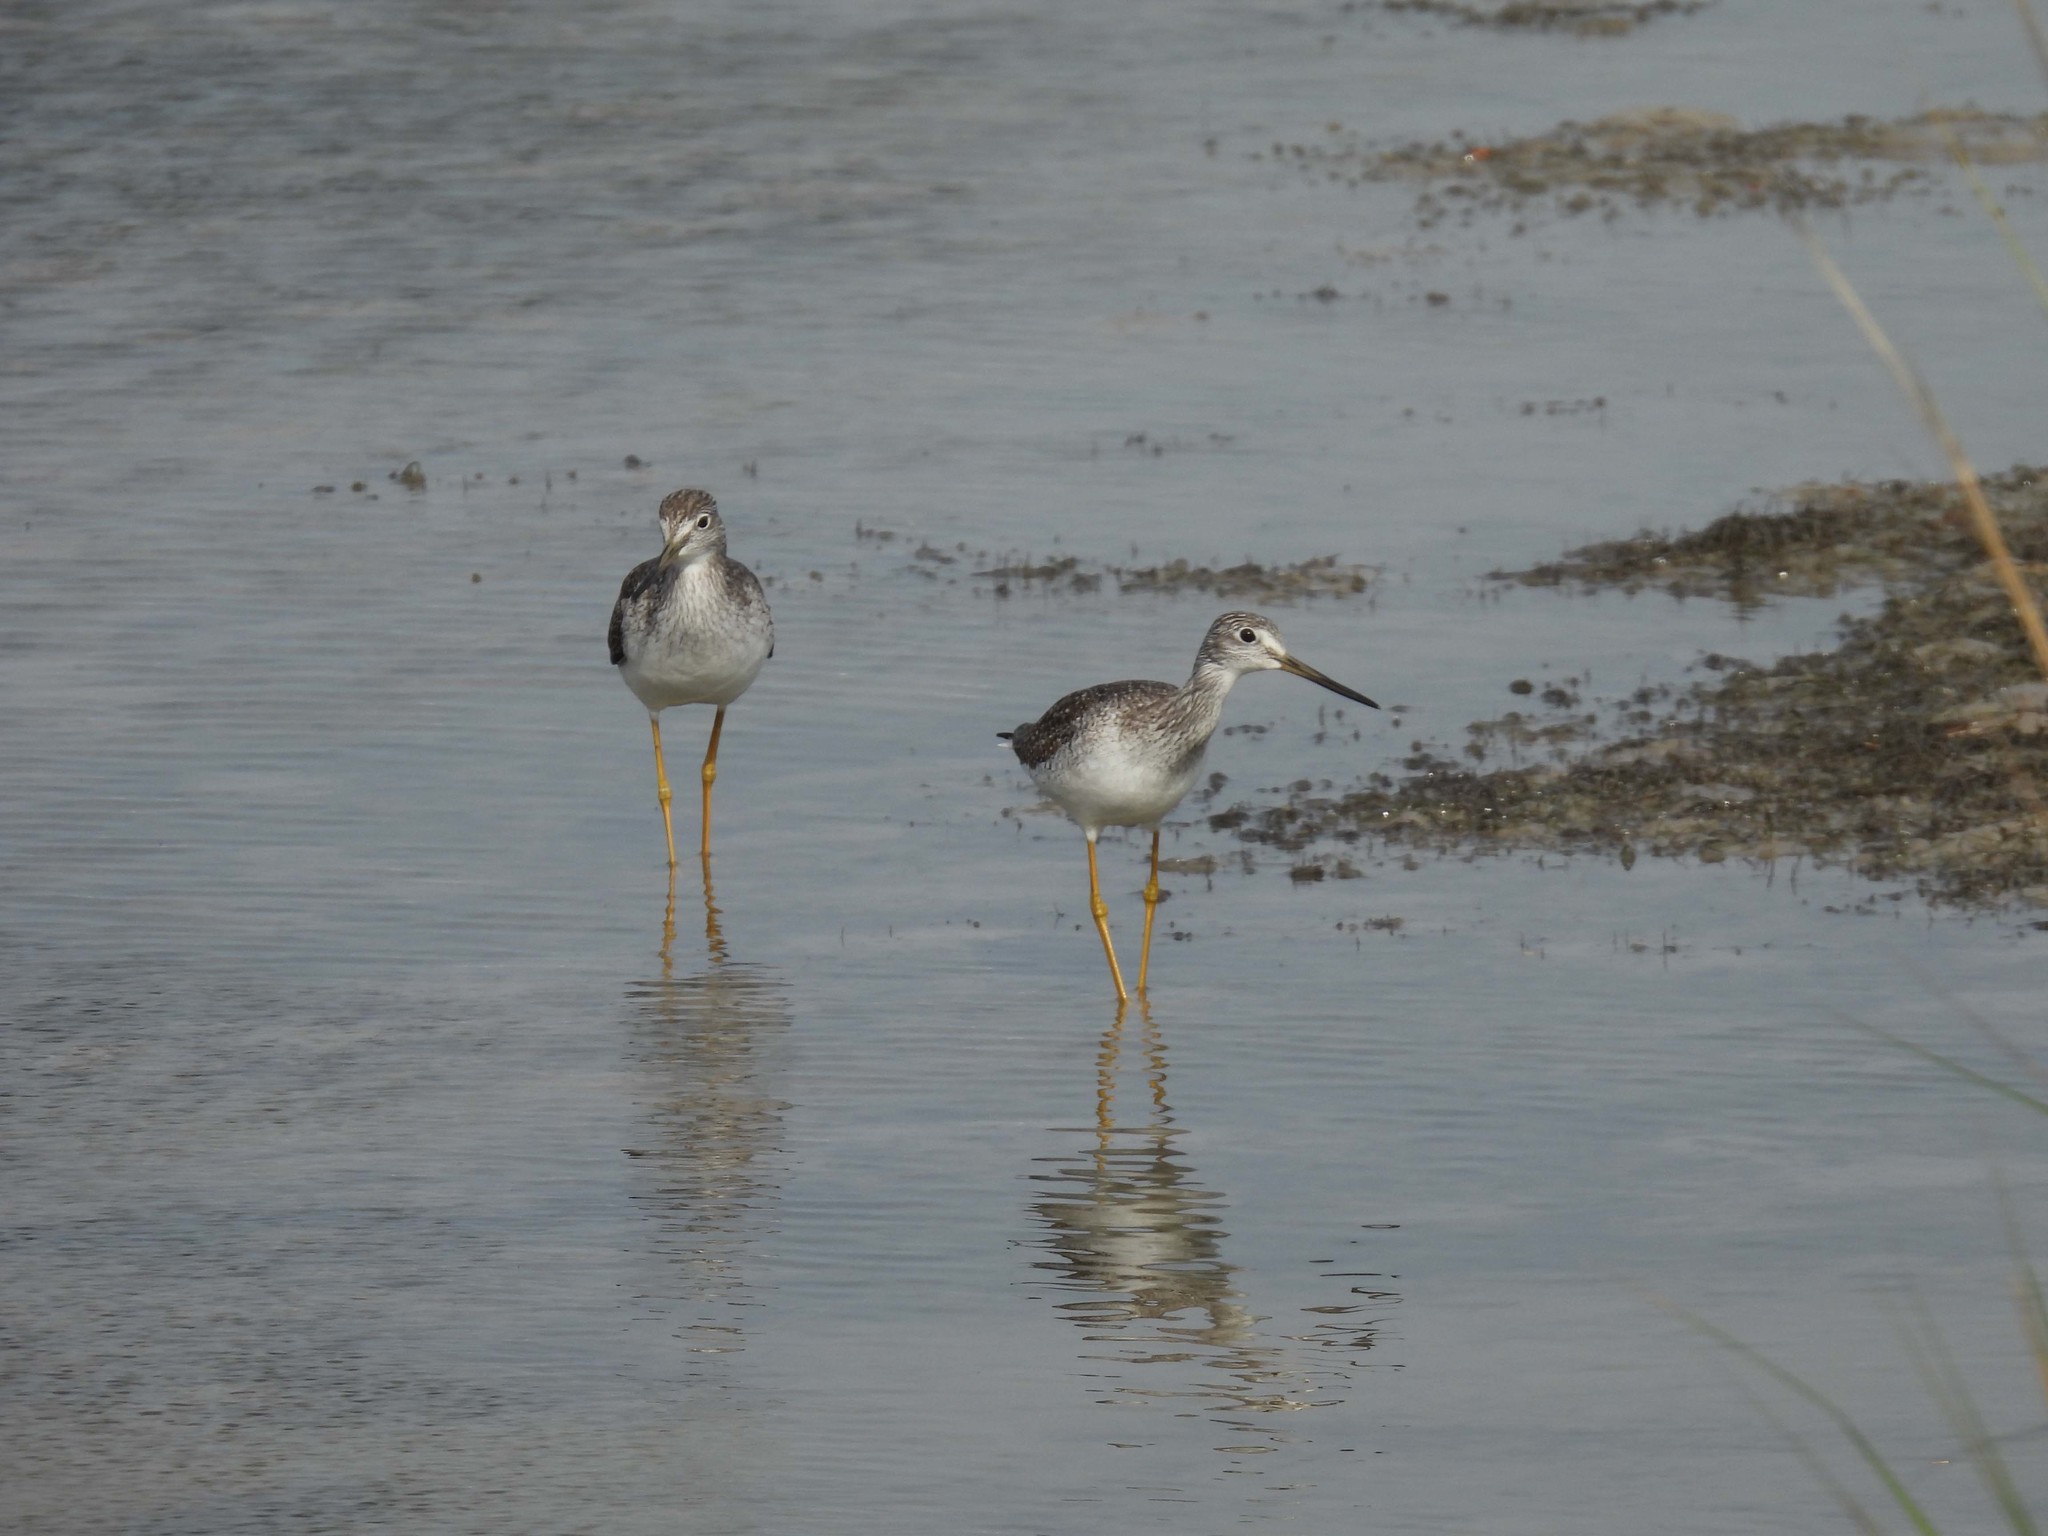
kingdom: Animalia
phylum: Chordata
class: Aves
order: Charadriiformes
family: Scolopacidae
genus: Tringa
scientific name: Tringa melanoleuca
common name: Greater yellowlegs
